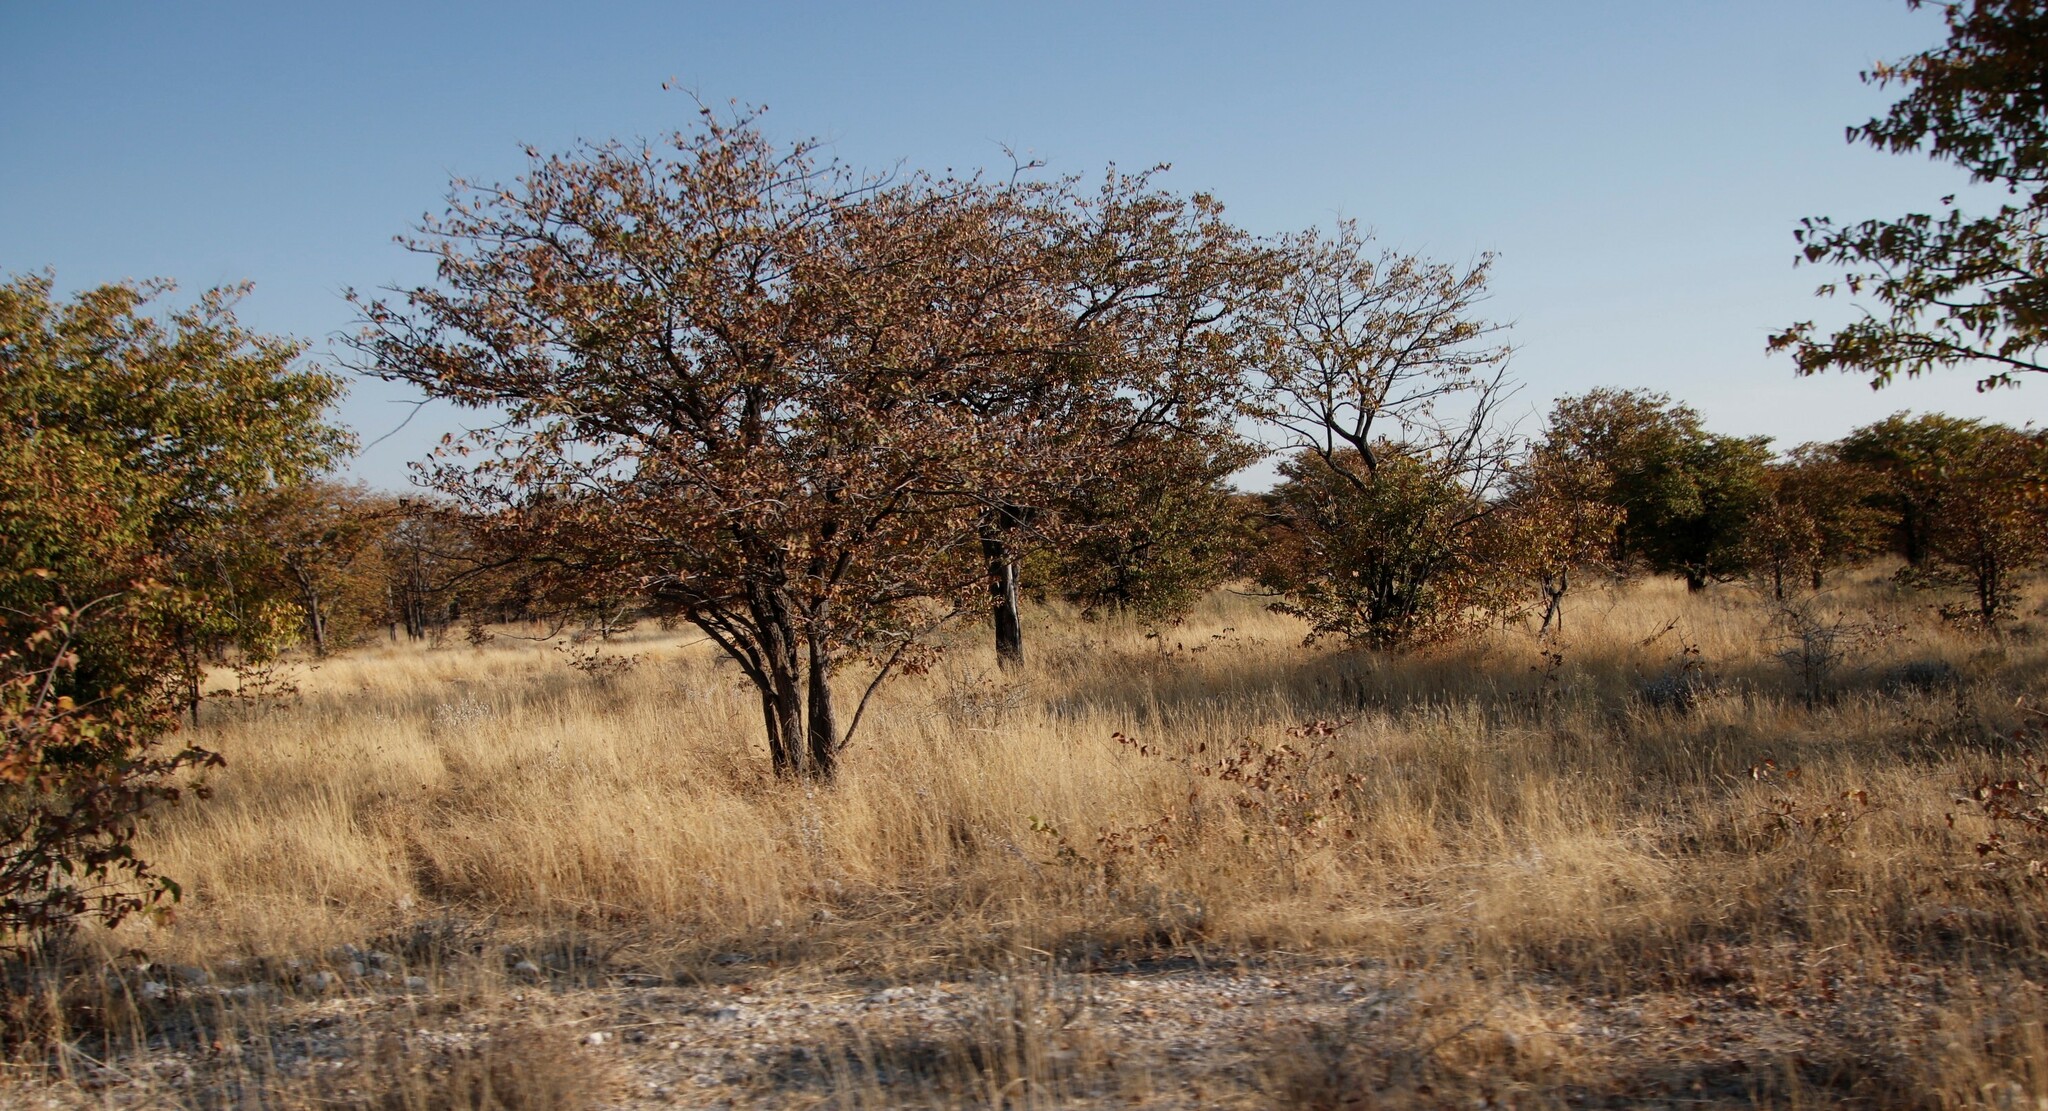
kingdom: Plantae
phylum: Tracheophyta
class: Magnoliopsida
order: Fabales
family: Fabaceae
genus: Colophospermum
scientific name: Colophospermum mopane
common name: Mopane
